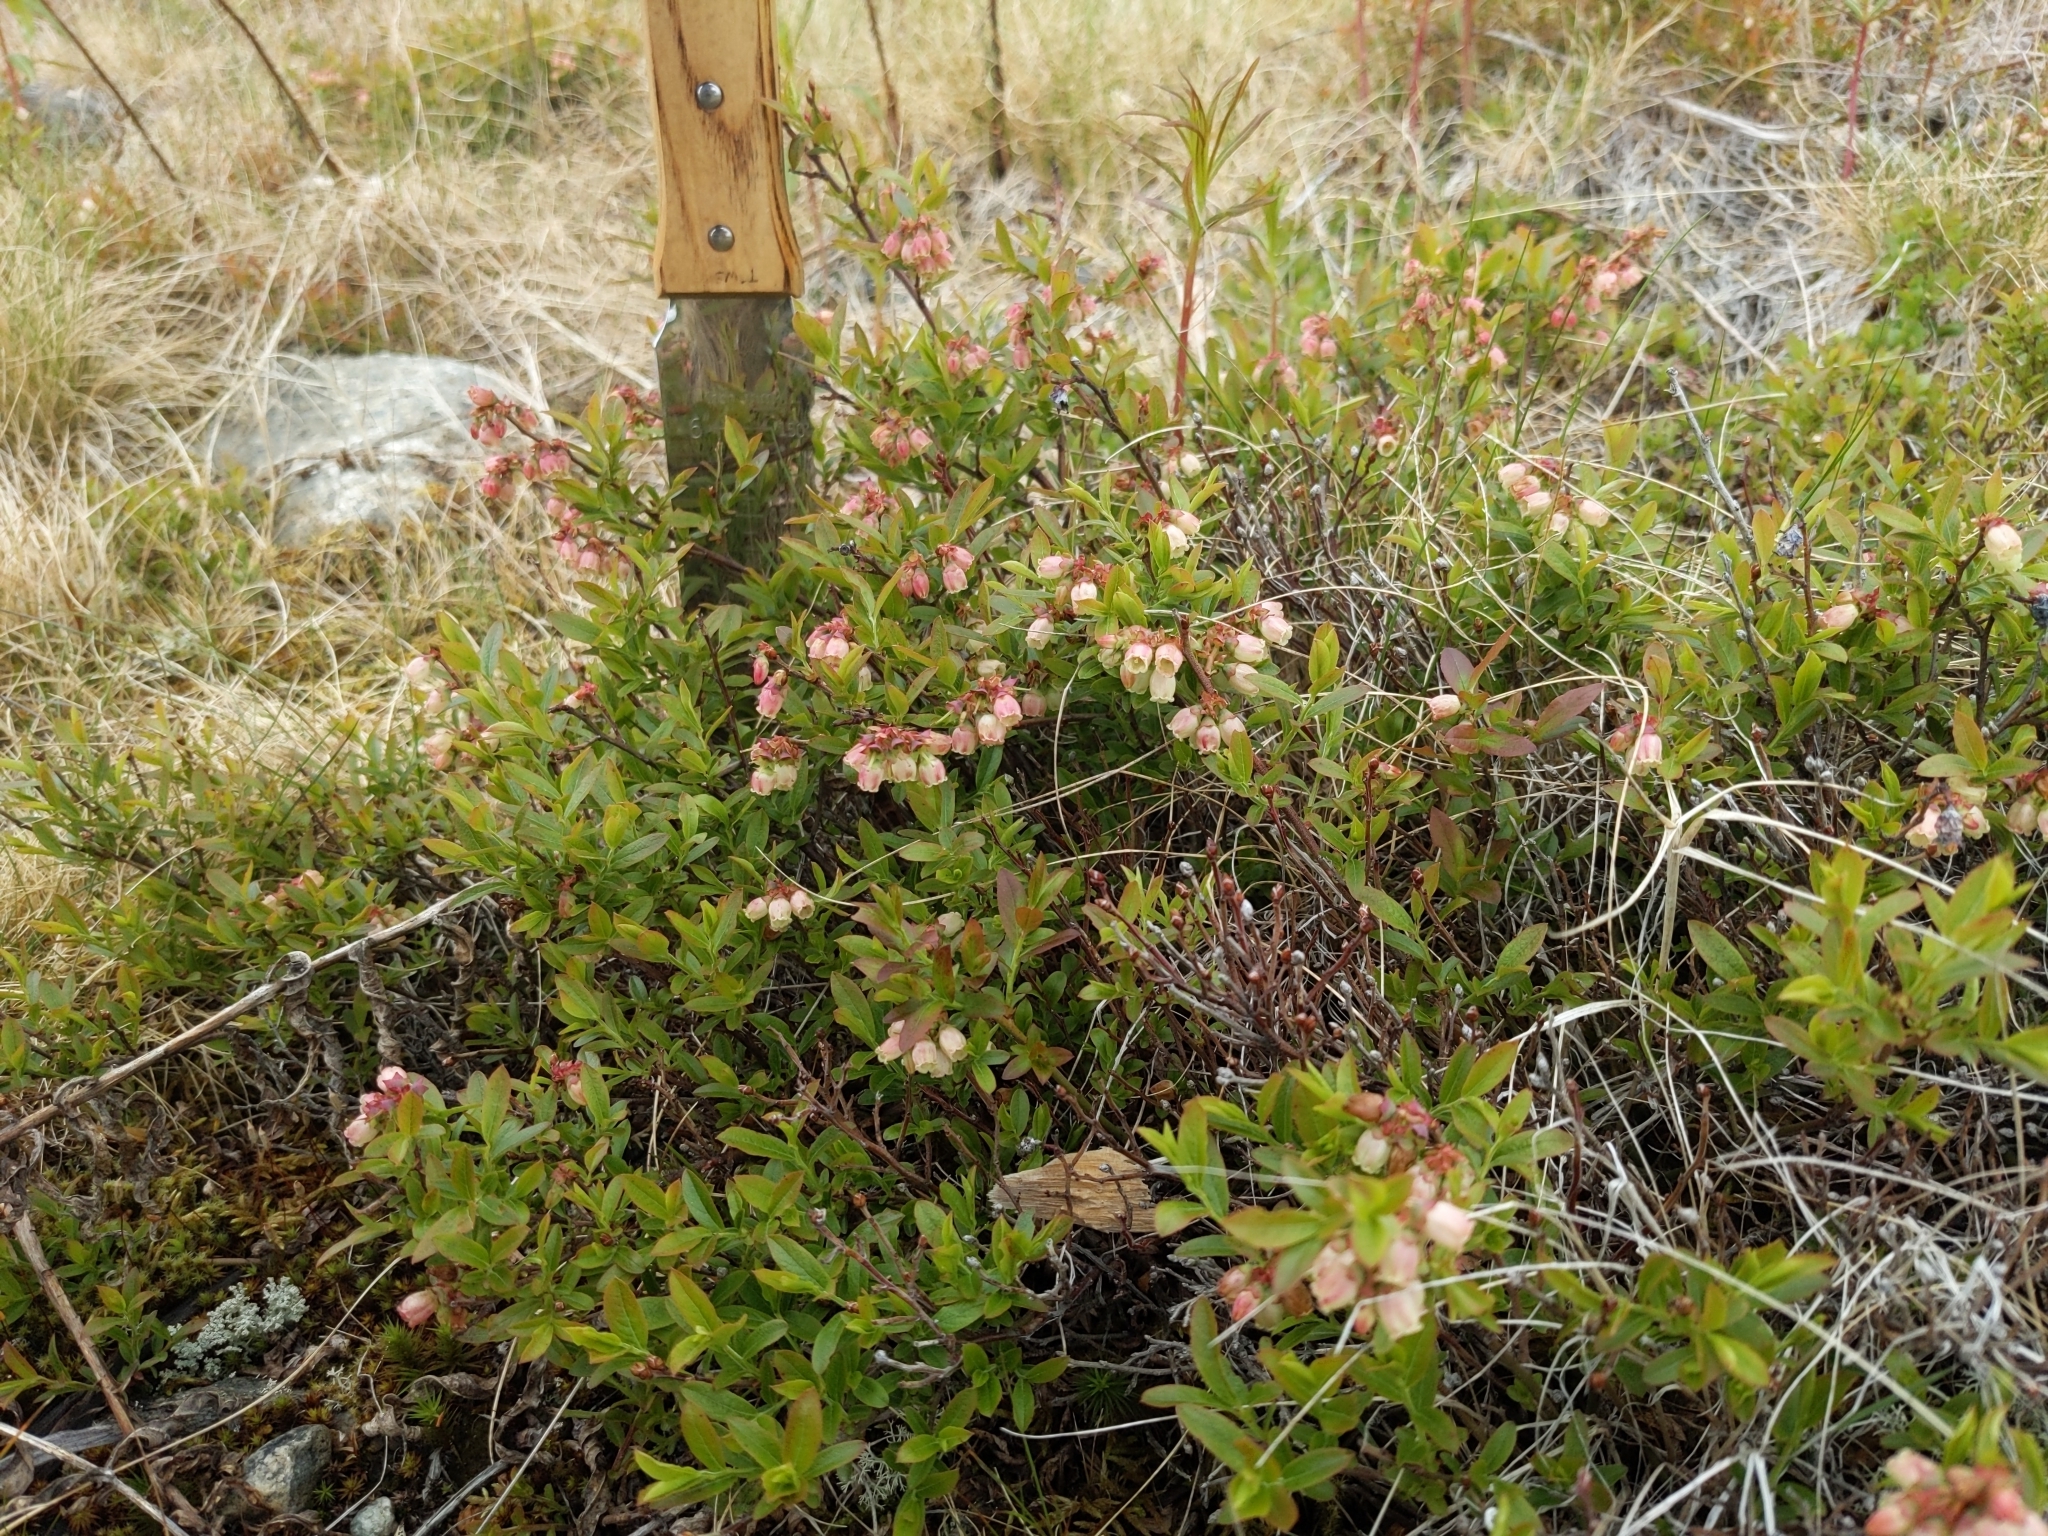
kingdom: Plantae
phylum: Tracheophyta
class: Magnoliopsida
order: Ericales
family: Ericaceae
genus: Vaccinium
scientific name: Vaccinium angustifolium
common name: Early lowbush blueberry
